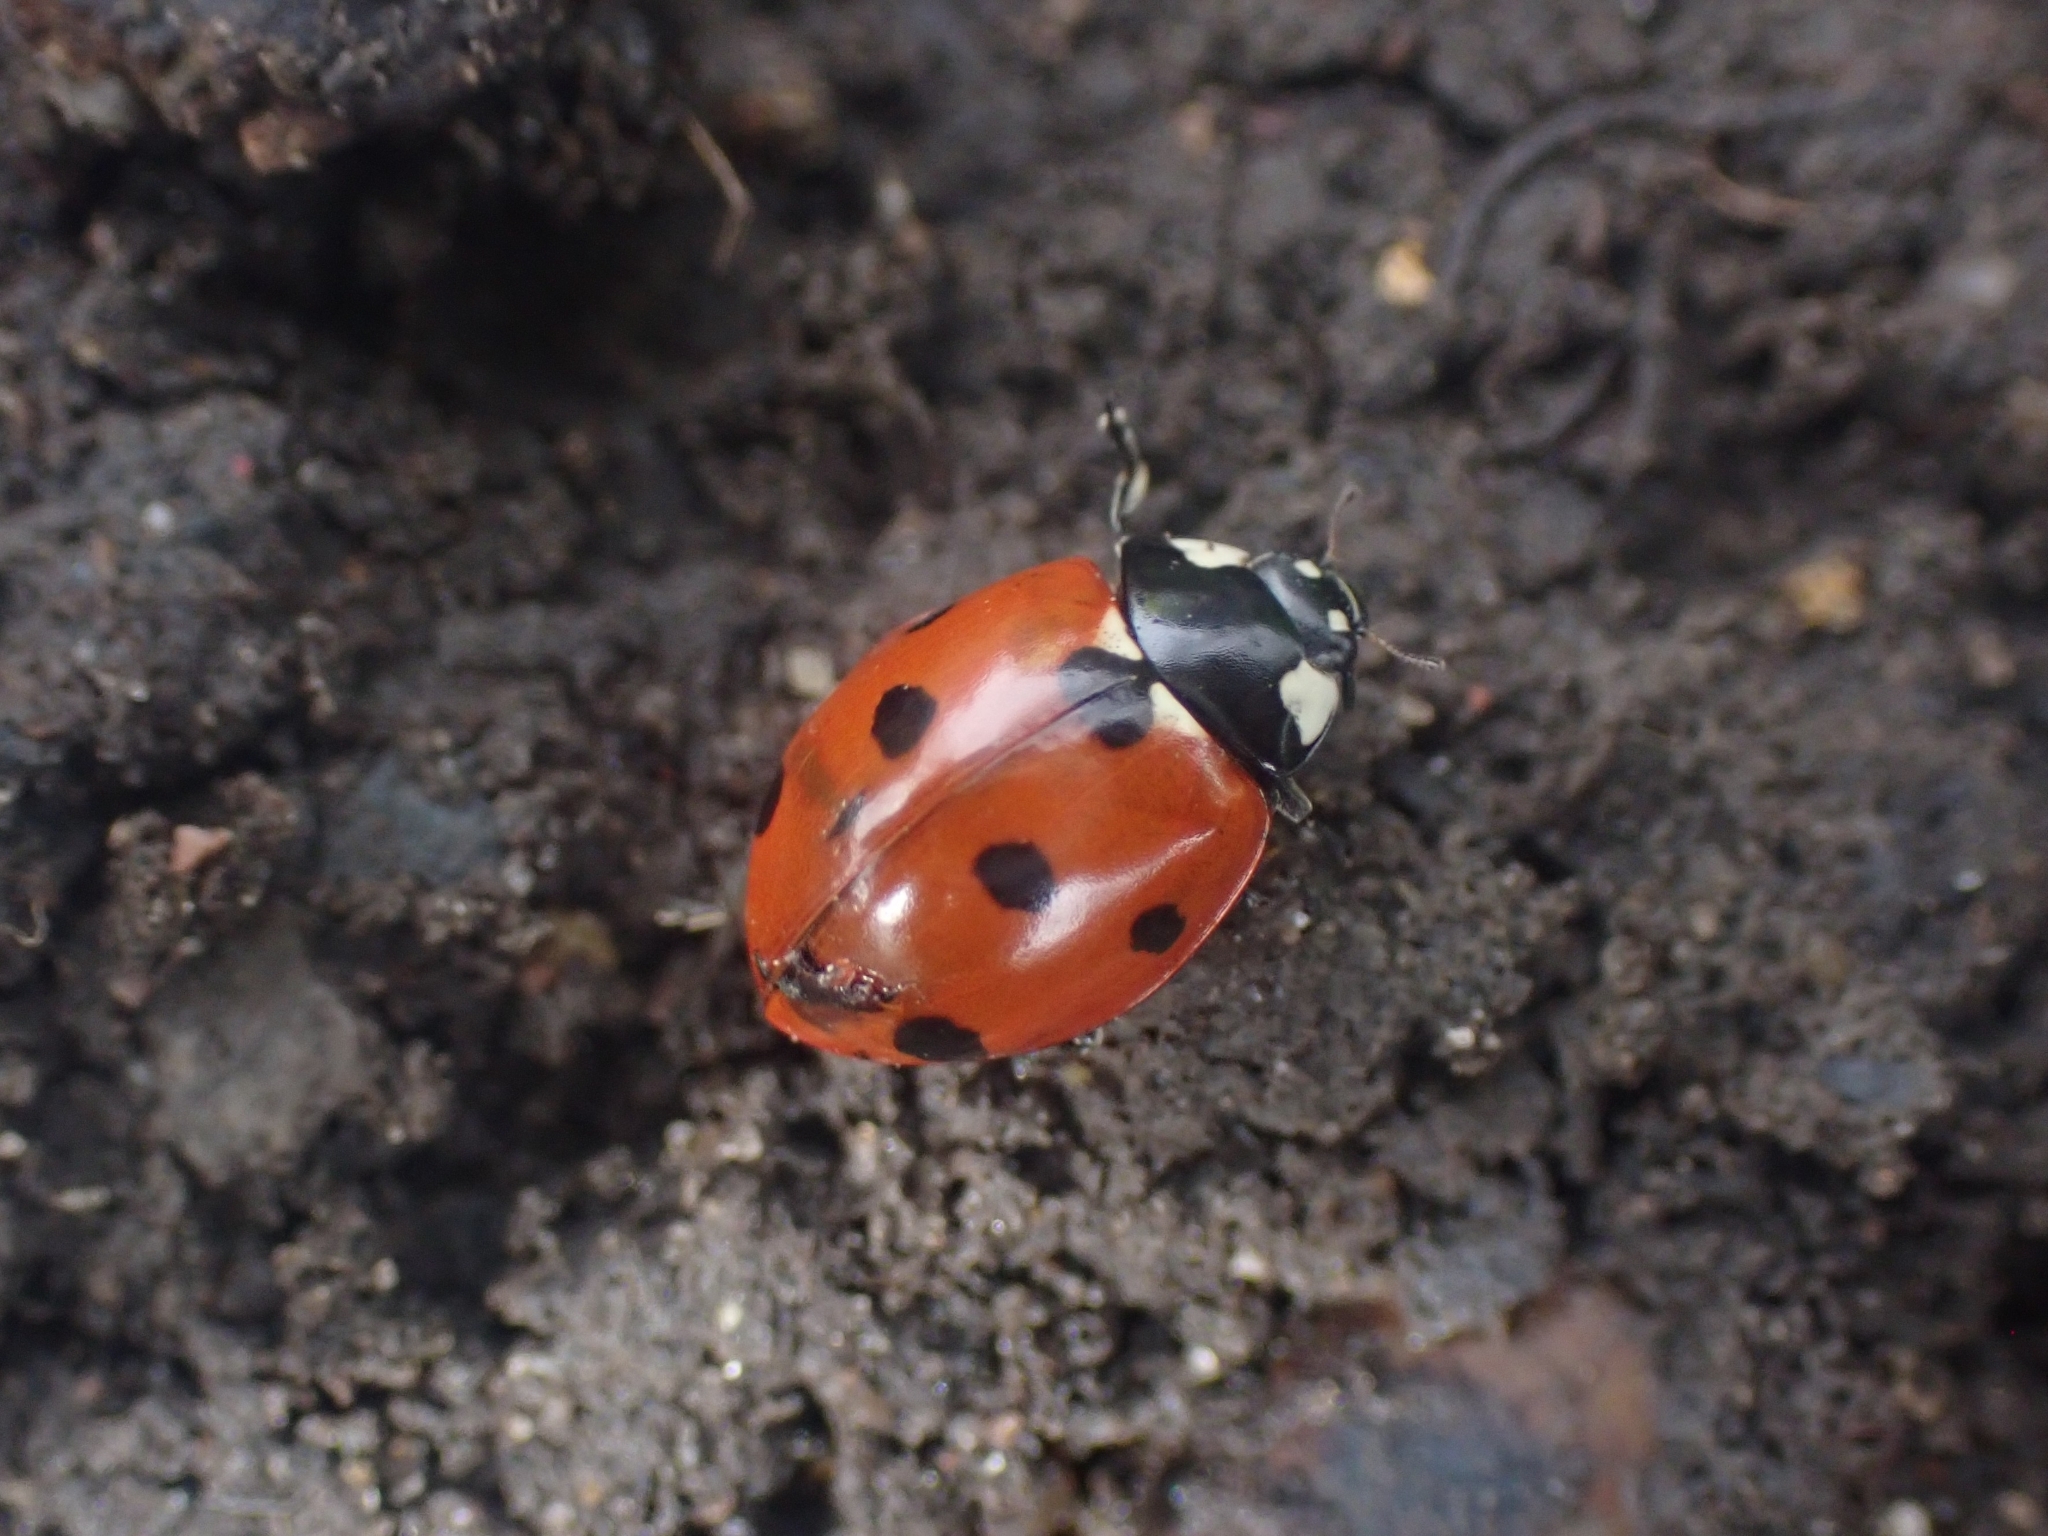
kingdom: Animalia
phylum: Arthropoda
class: Insecta
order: Coleoptera
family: Coccinellidae
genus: Coccinella
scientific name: Coccinella septempunctata
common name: Sevenspotted lady beetle
